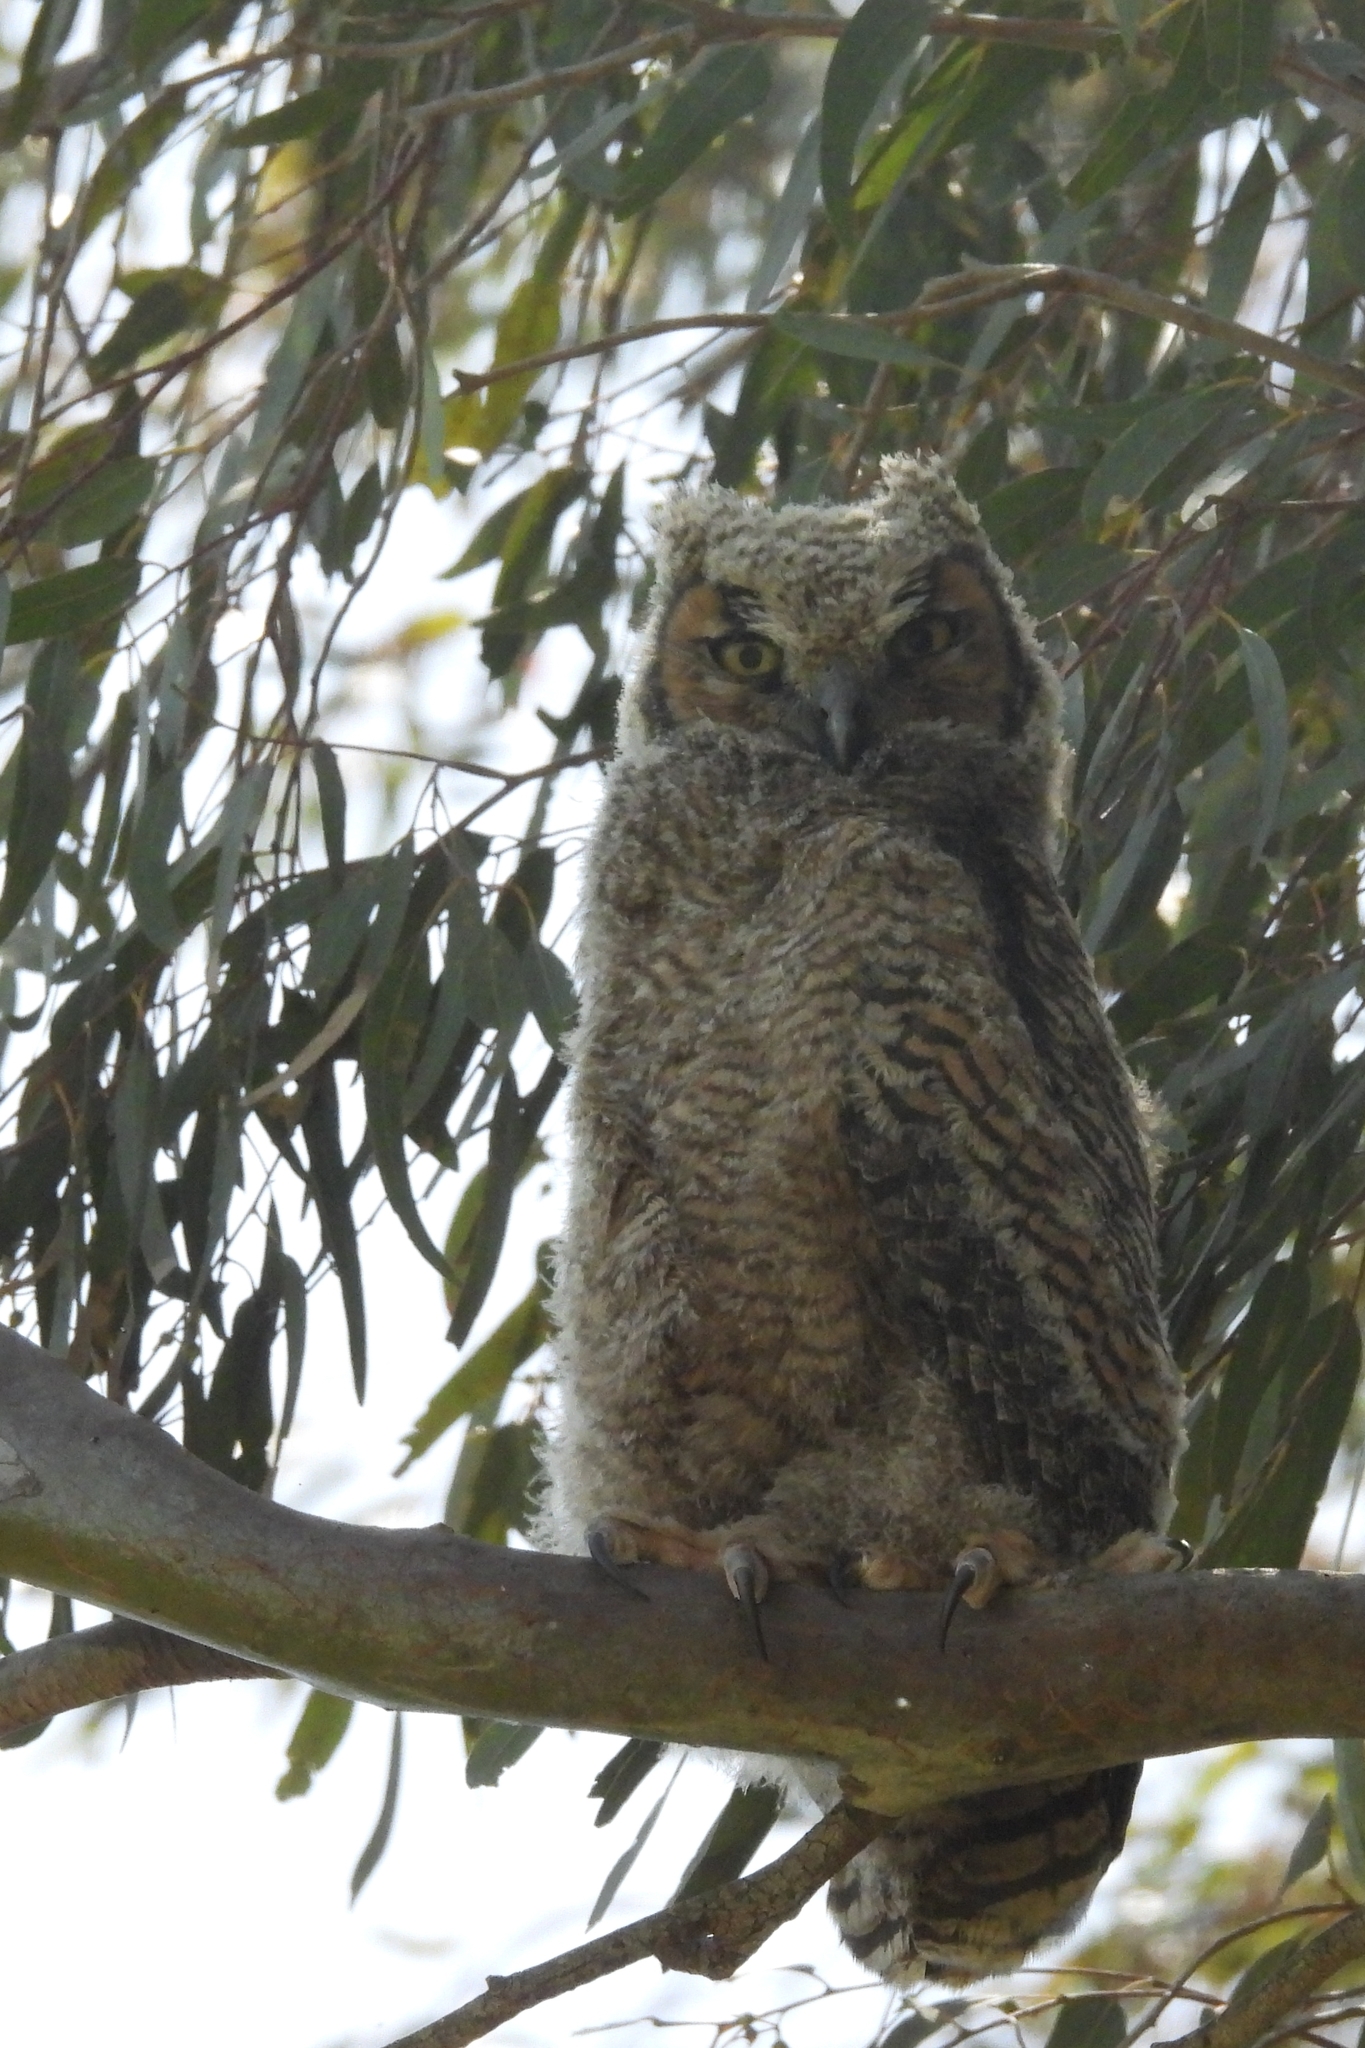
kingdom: Animalia
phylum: Chordata
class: Aves
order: Strigiformes
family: Strigidae
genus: Bubo
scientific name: Bubo virginianus
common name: Great horned owl
